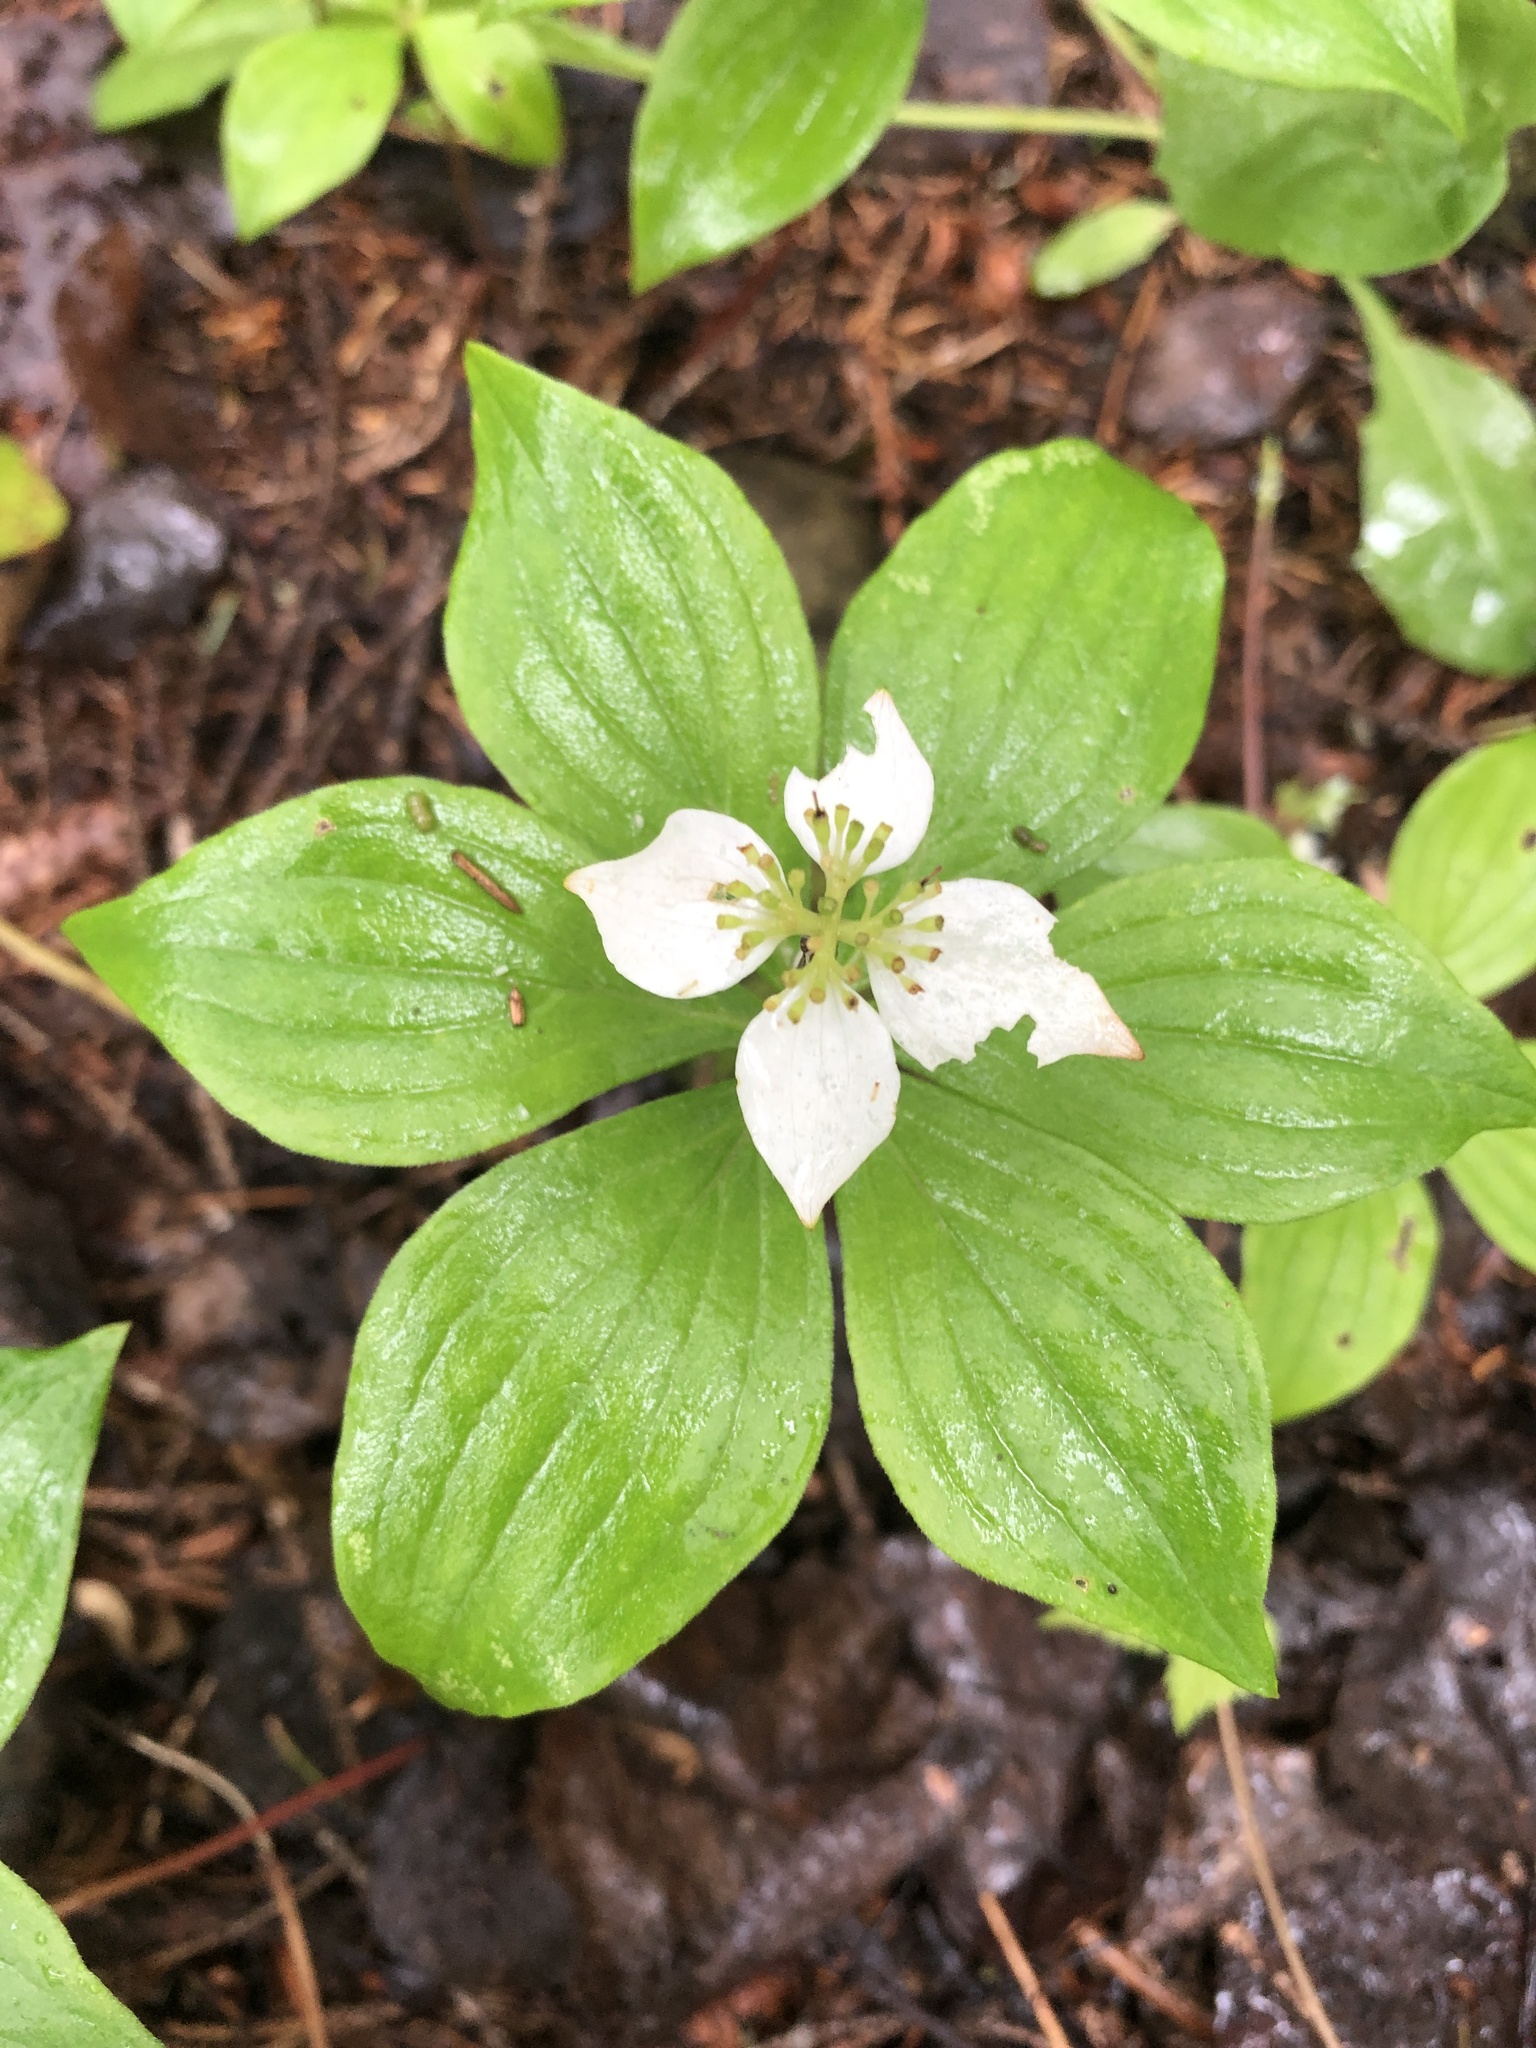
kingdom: Plantae
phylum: Tracheophyta
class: Magnoliopsida
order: Cornales
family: Cornaceae
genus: Cornus
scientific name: Cornus canadensis
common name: Creeping dogwood
